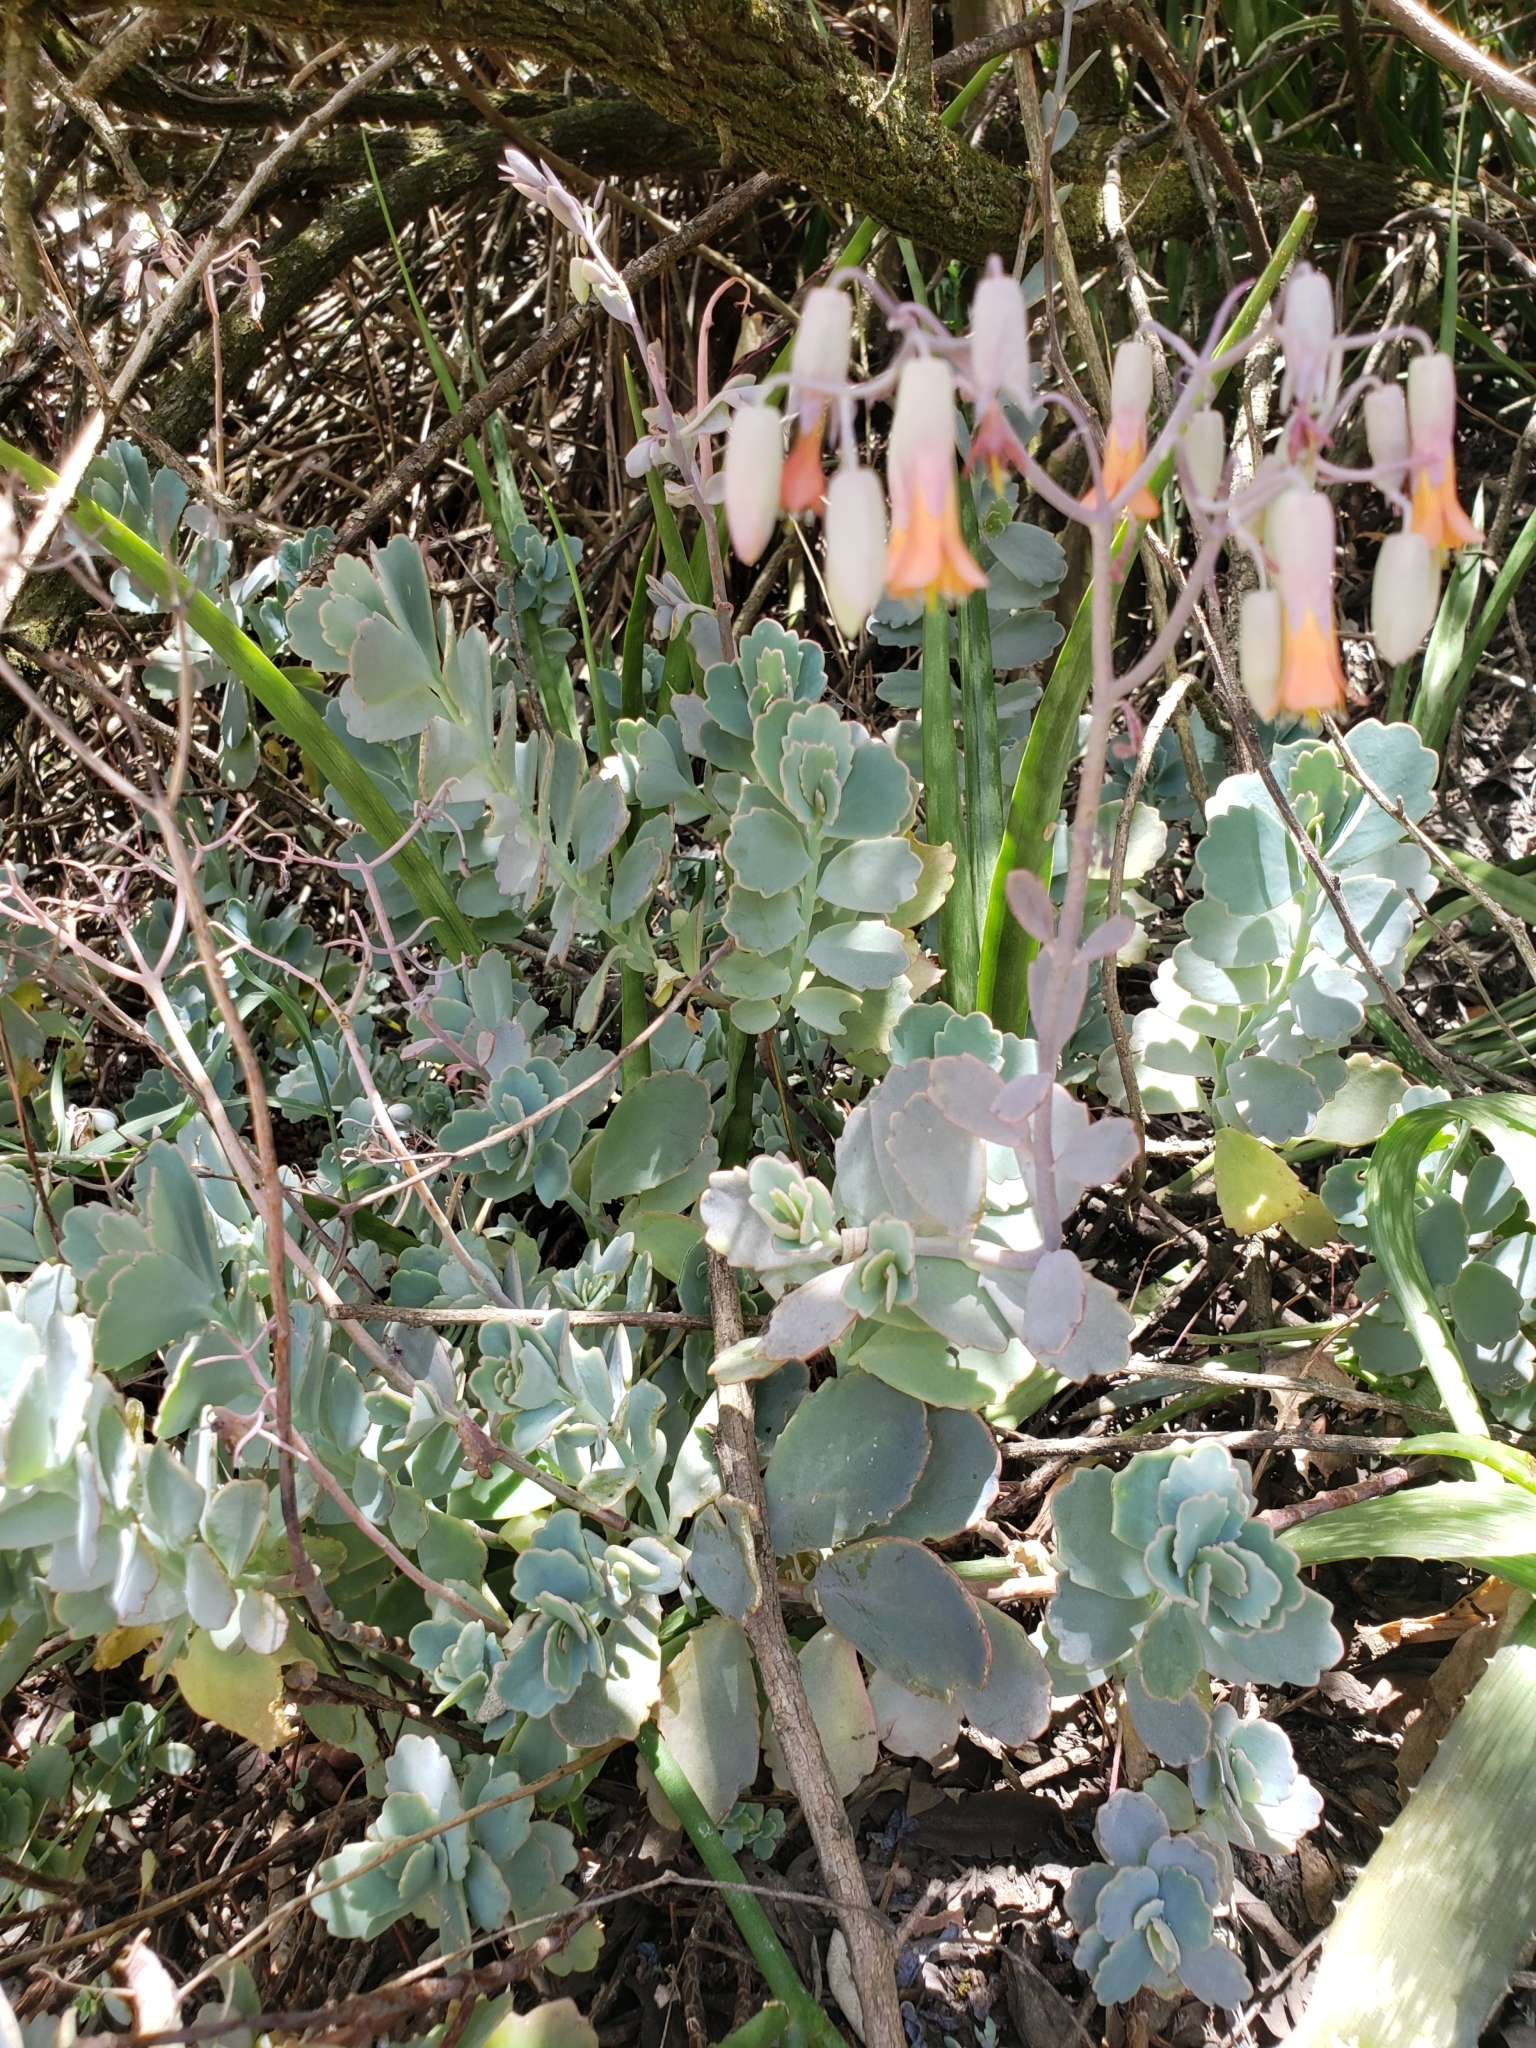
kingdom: Plantae
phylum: Tracheophyta
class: Magnoliopsida
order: Saxifragales
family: Crassulaceae
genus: Kalanchoe
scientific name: Kalanchoe fedtschenkoi
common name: Lavender scallops
